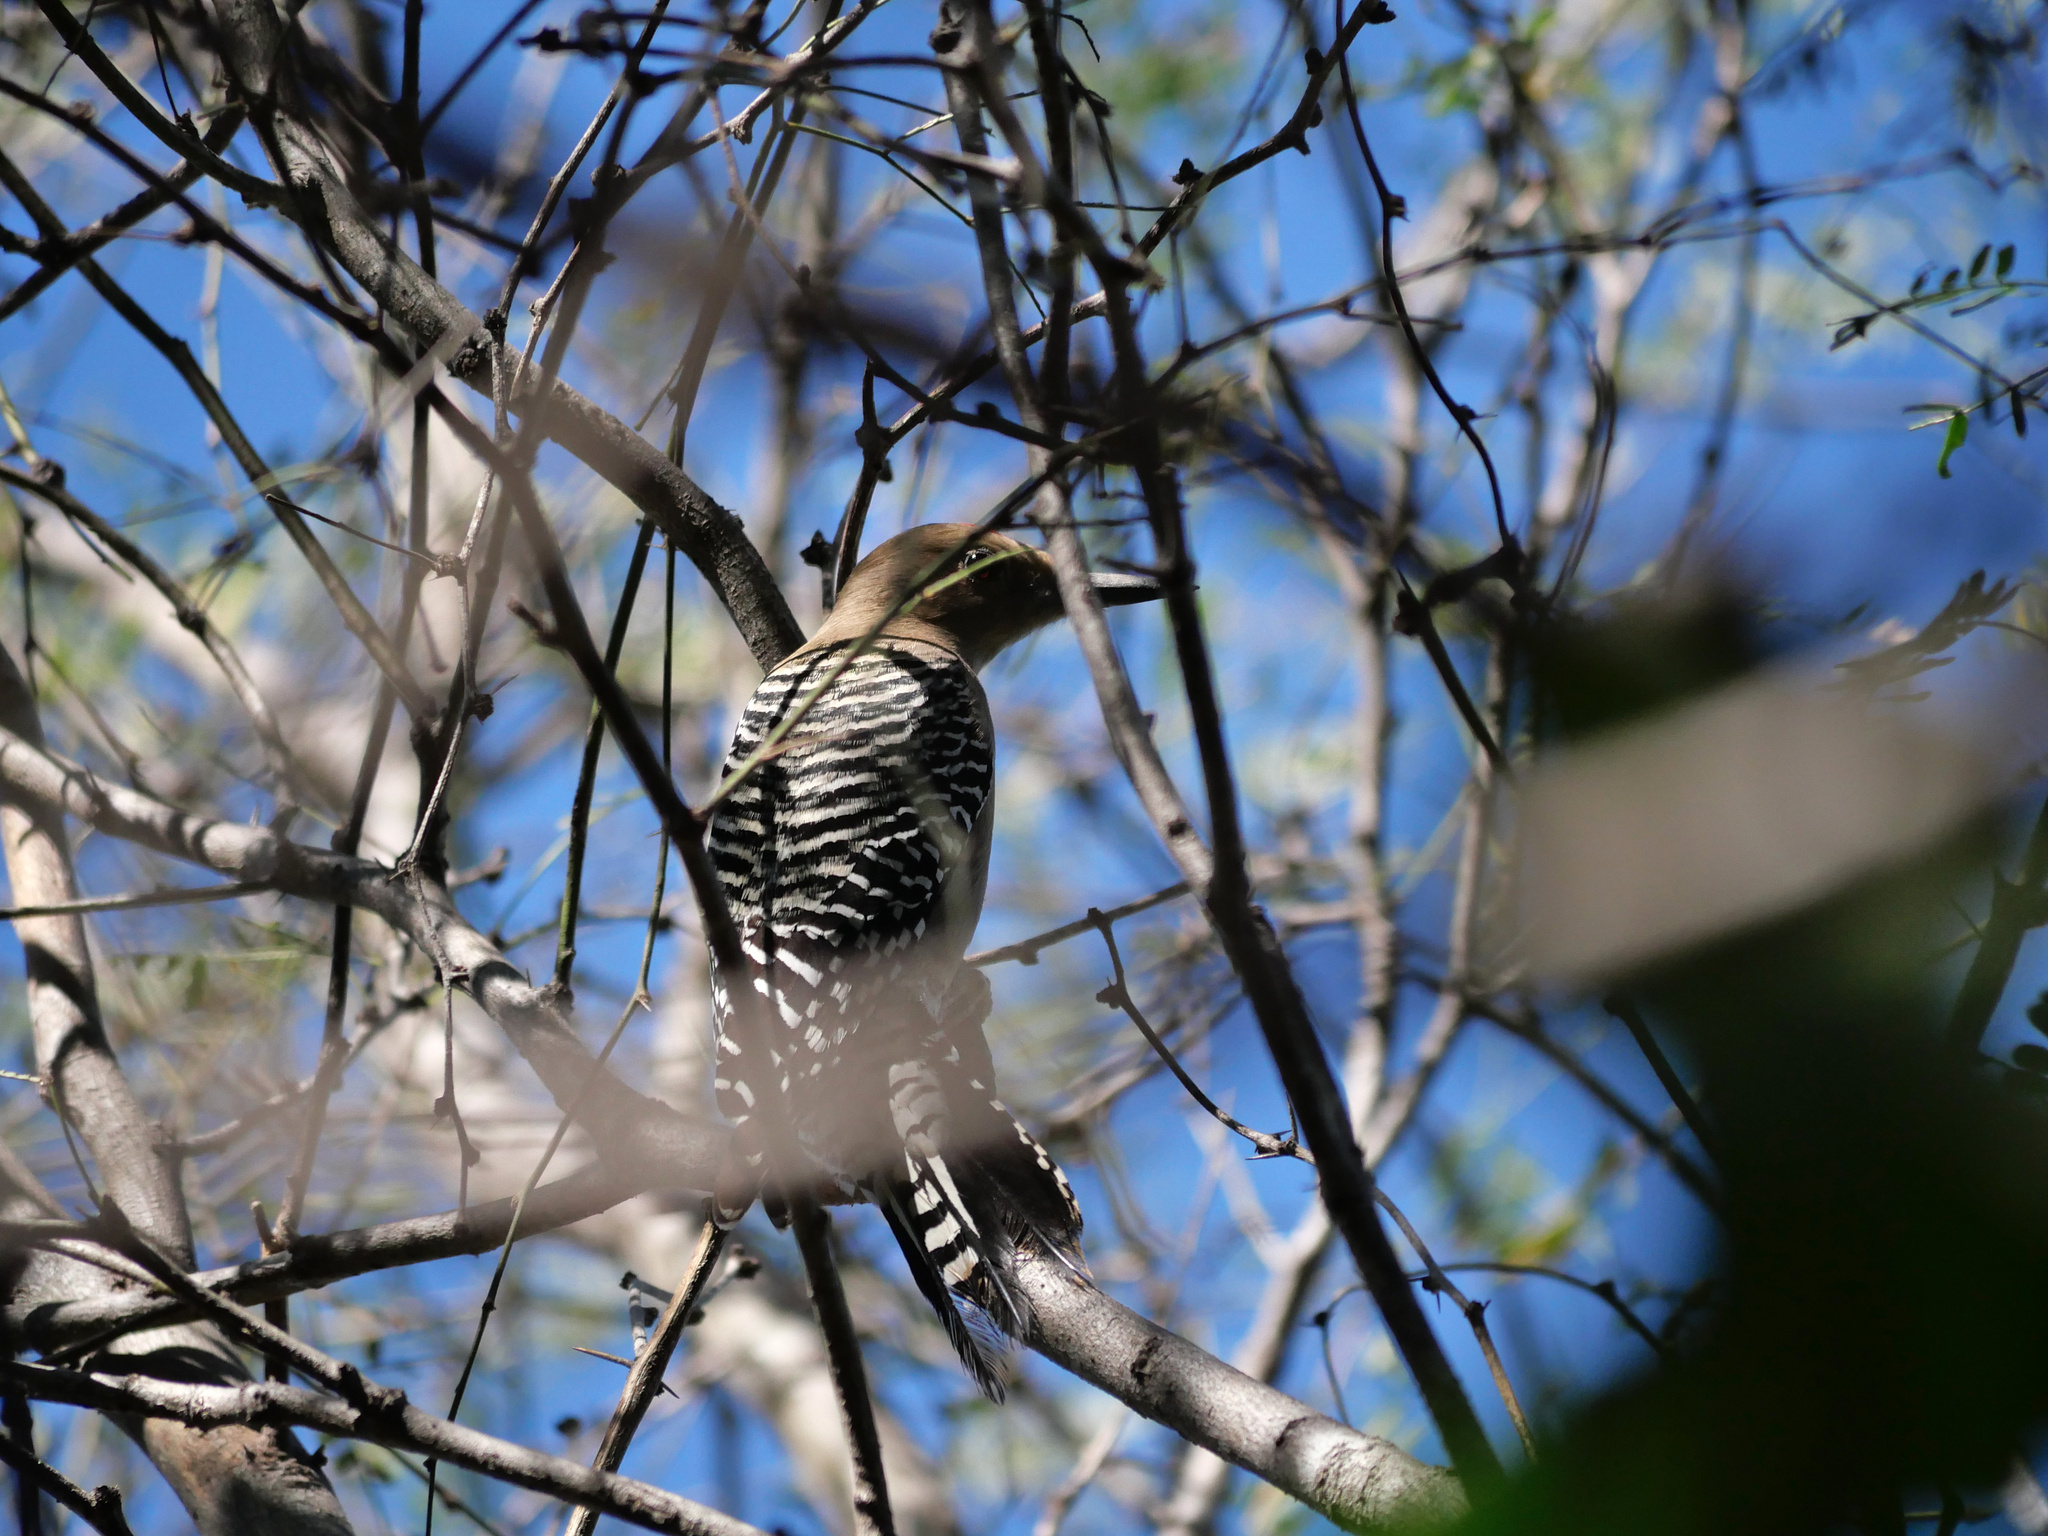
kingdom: Animalia
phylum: Chordata
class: Aves
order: Piciformes
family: Picidae
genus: Melanerpes
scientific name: Melanerpes uropygialis
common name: Gila woodpecker
